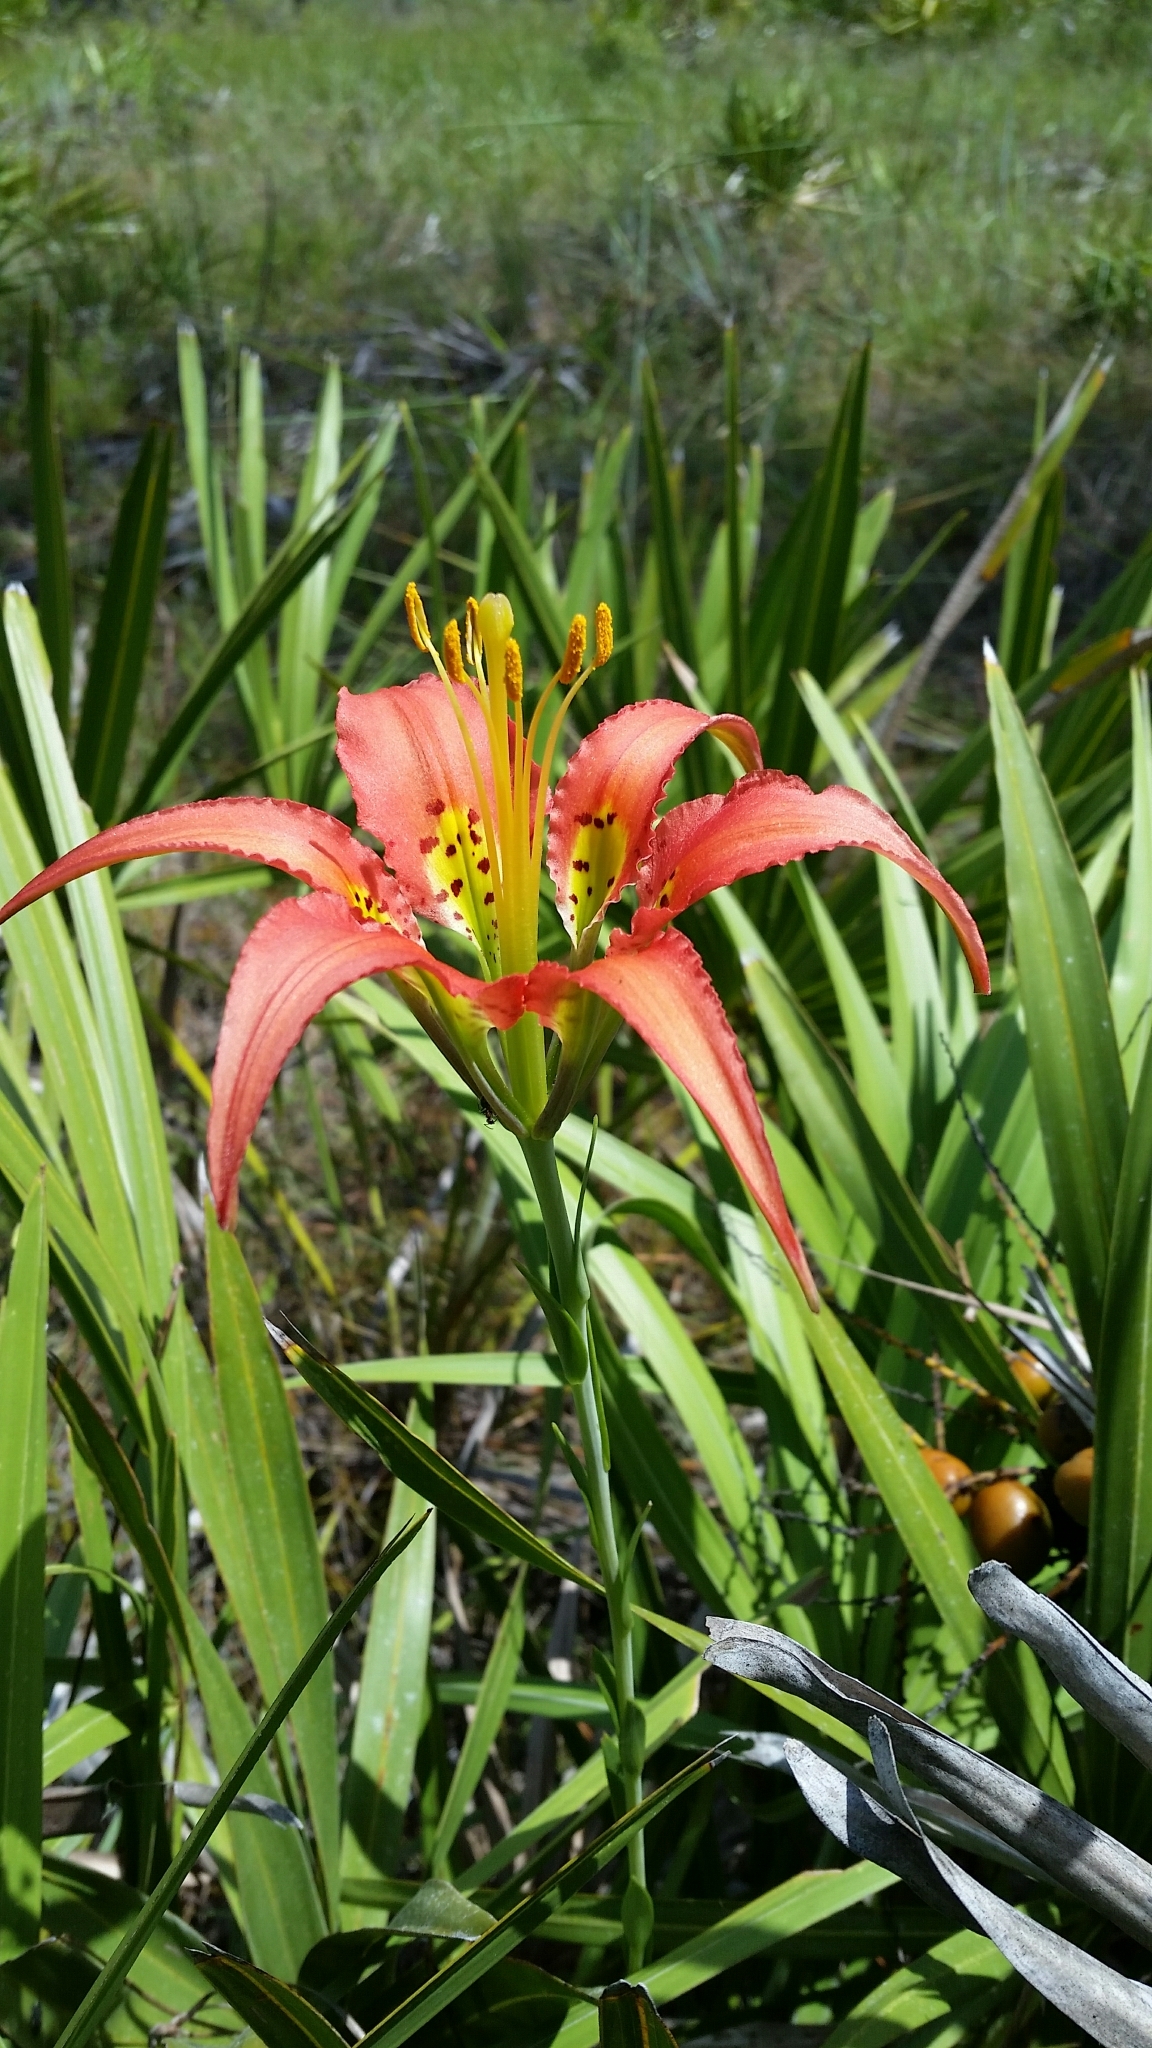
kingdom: Plantae
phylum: Tracheophyta
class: Liliopsida
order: Liliales
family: Liliaceae
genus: Lilium
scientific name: Lilium catesbaei
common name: Catesby's lily
